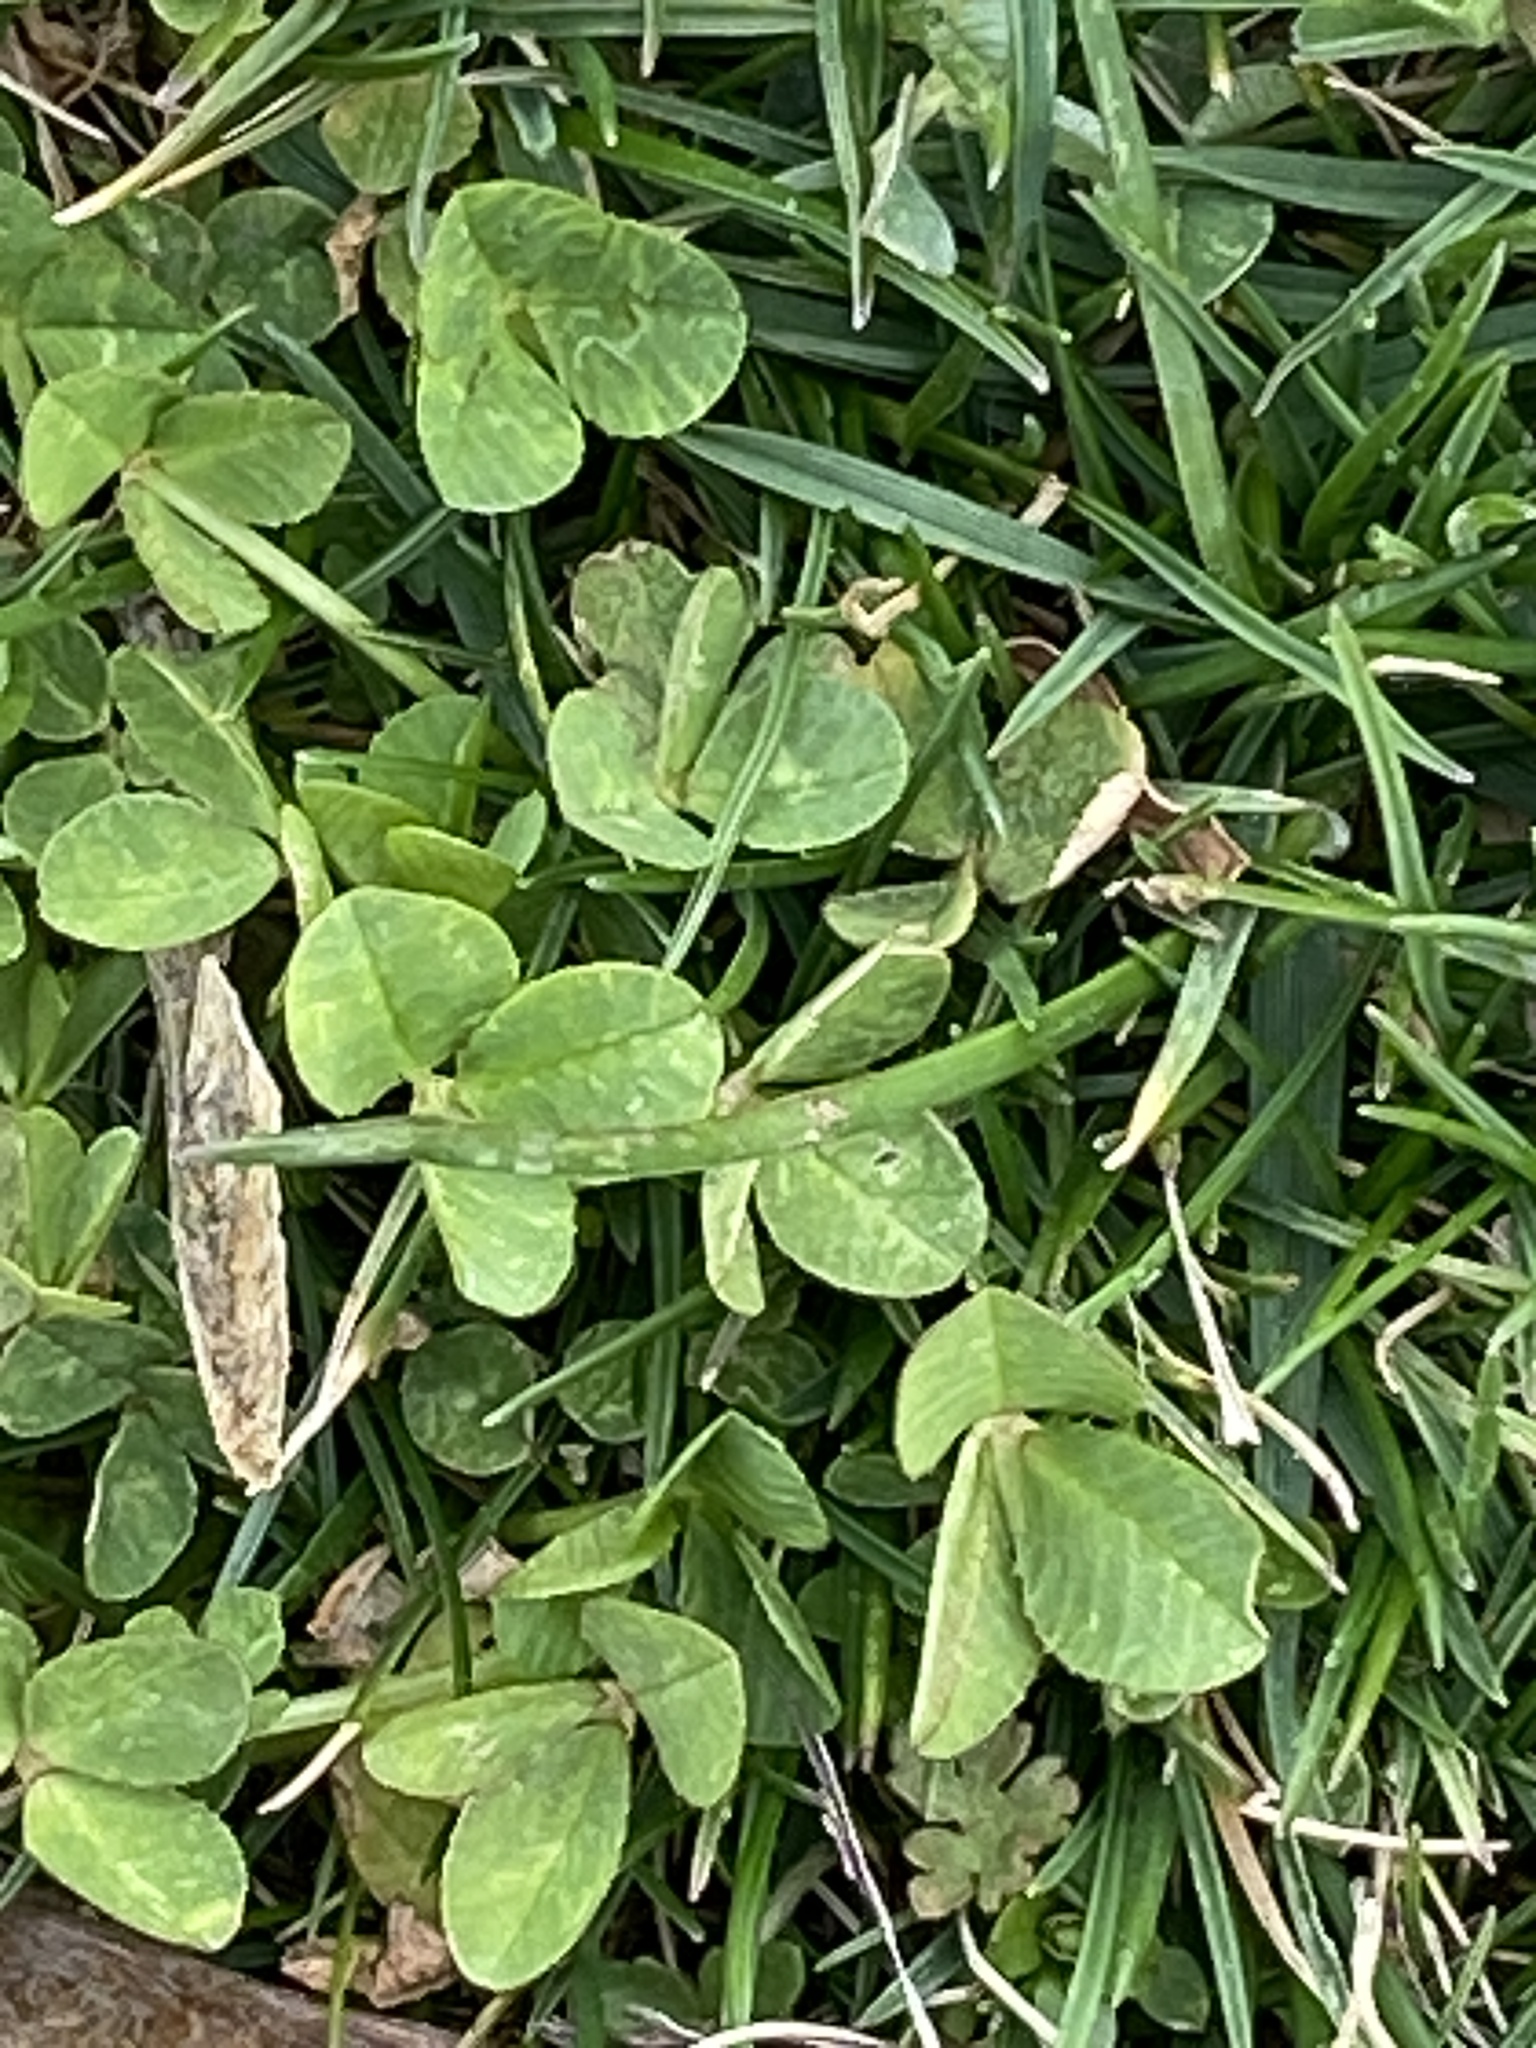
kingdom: Plantae
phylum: Tracheophyta
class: Magnoliopsida
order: Fabales
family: Fabaceae
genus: Trifolium
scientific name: Trifolium repens
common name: White clover
